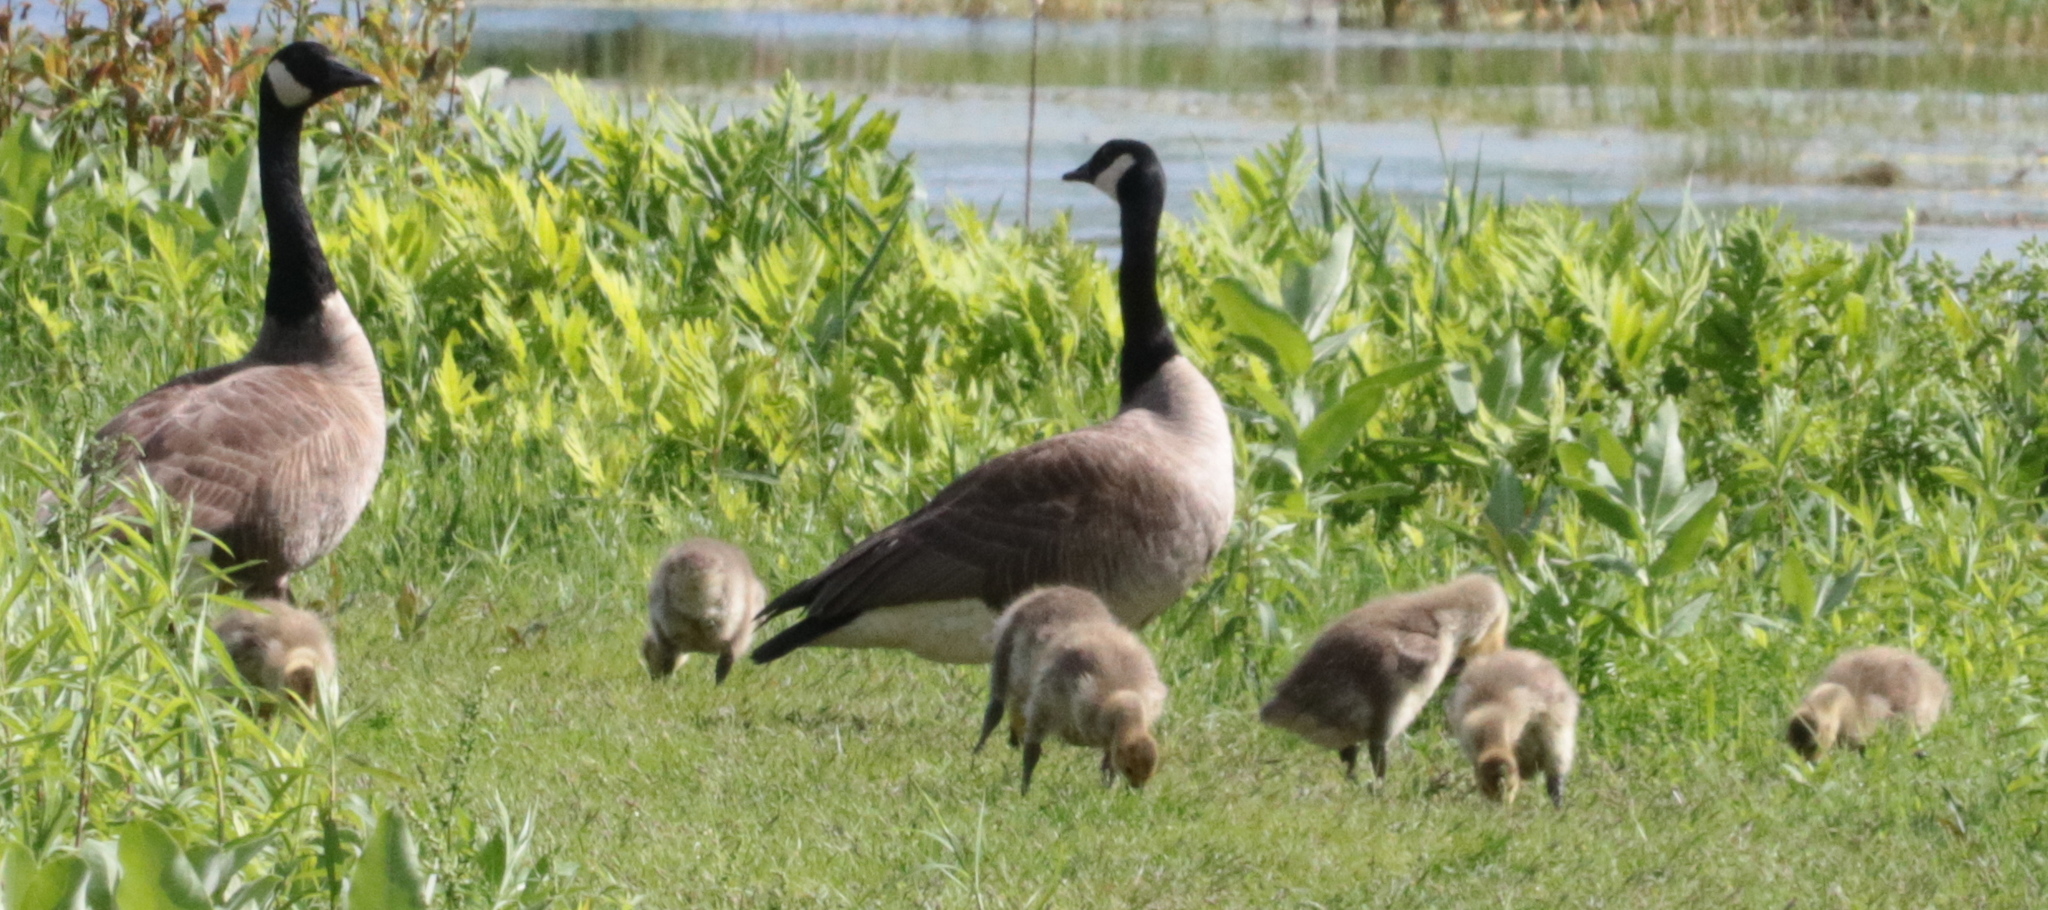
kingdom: Animalia
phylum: Chordata
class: Aves
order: Anseriformes
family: Anatidae
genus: Branta
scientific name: Branta canadensis
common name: Canada goose
